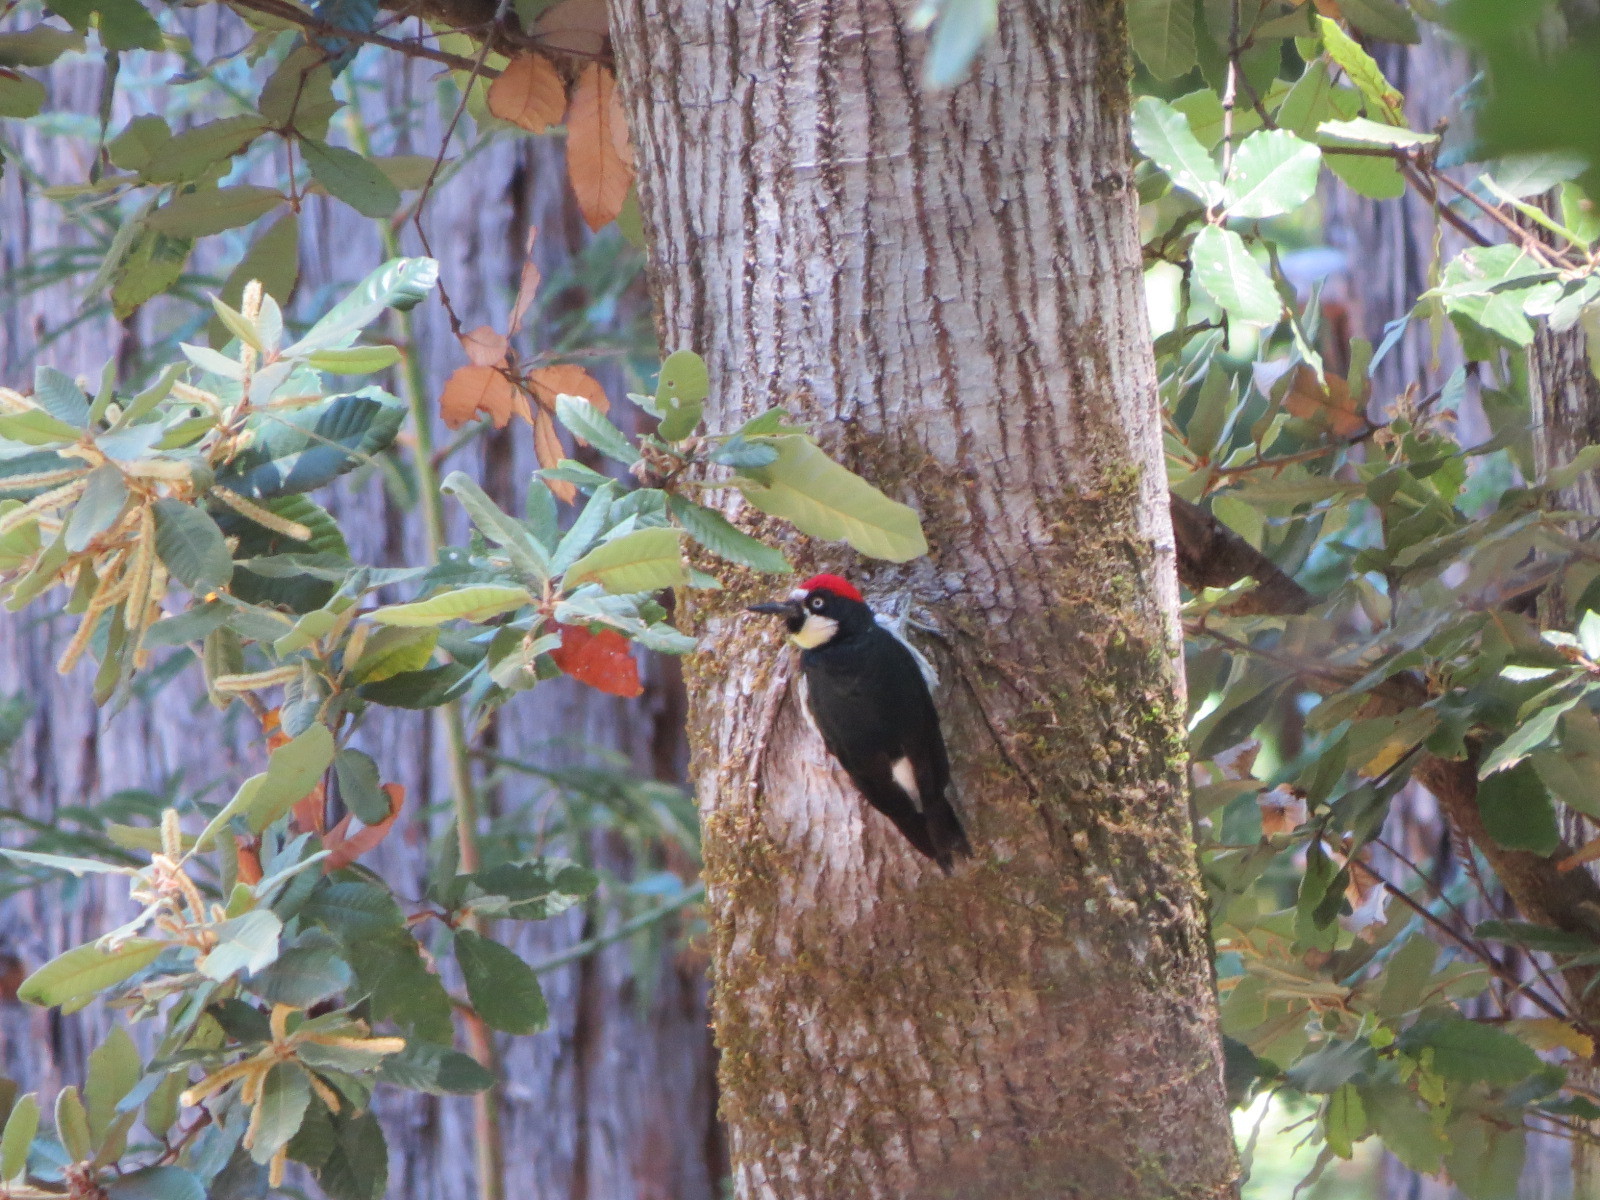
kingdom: Animalia
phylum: Chordata
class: Aves
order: Piciformes
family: Picidae
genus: Melanerpes
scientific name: Melanerpes formicivorus
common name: Acorn woodpecker
